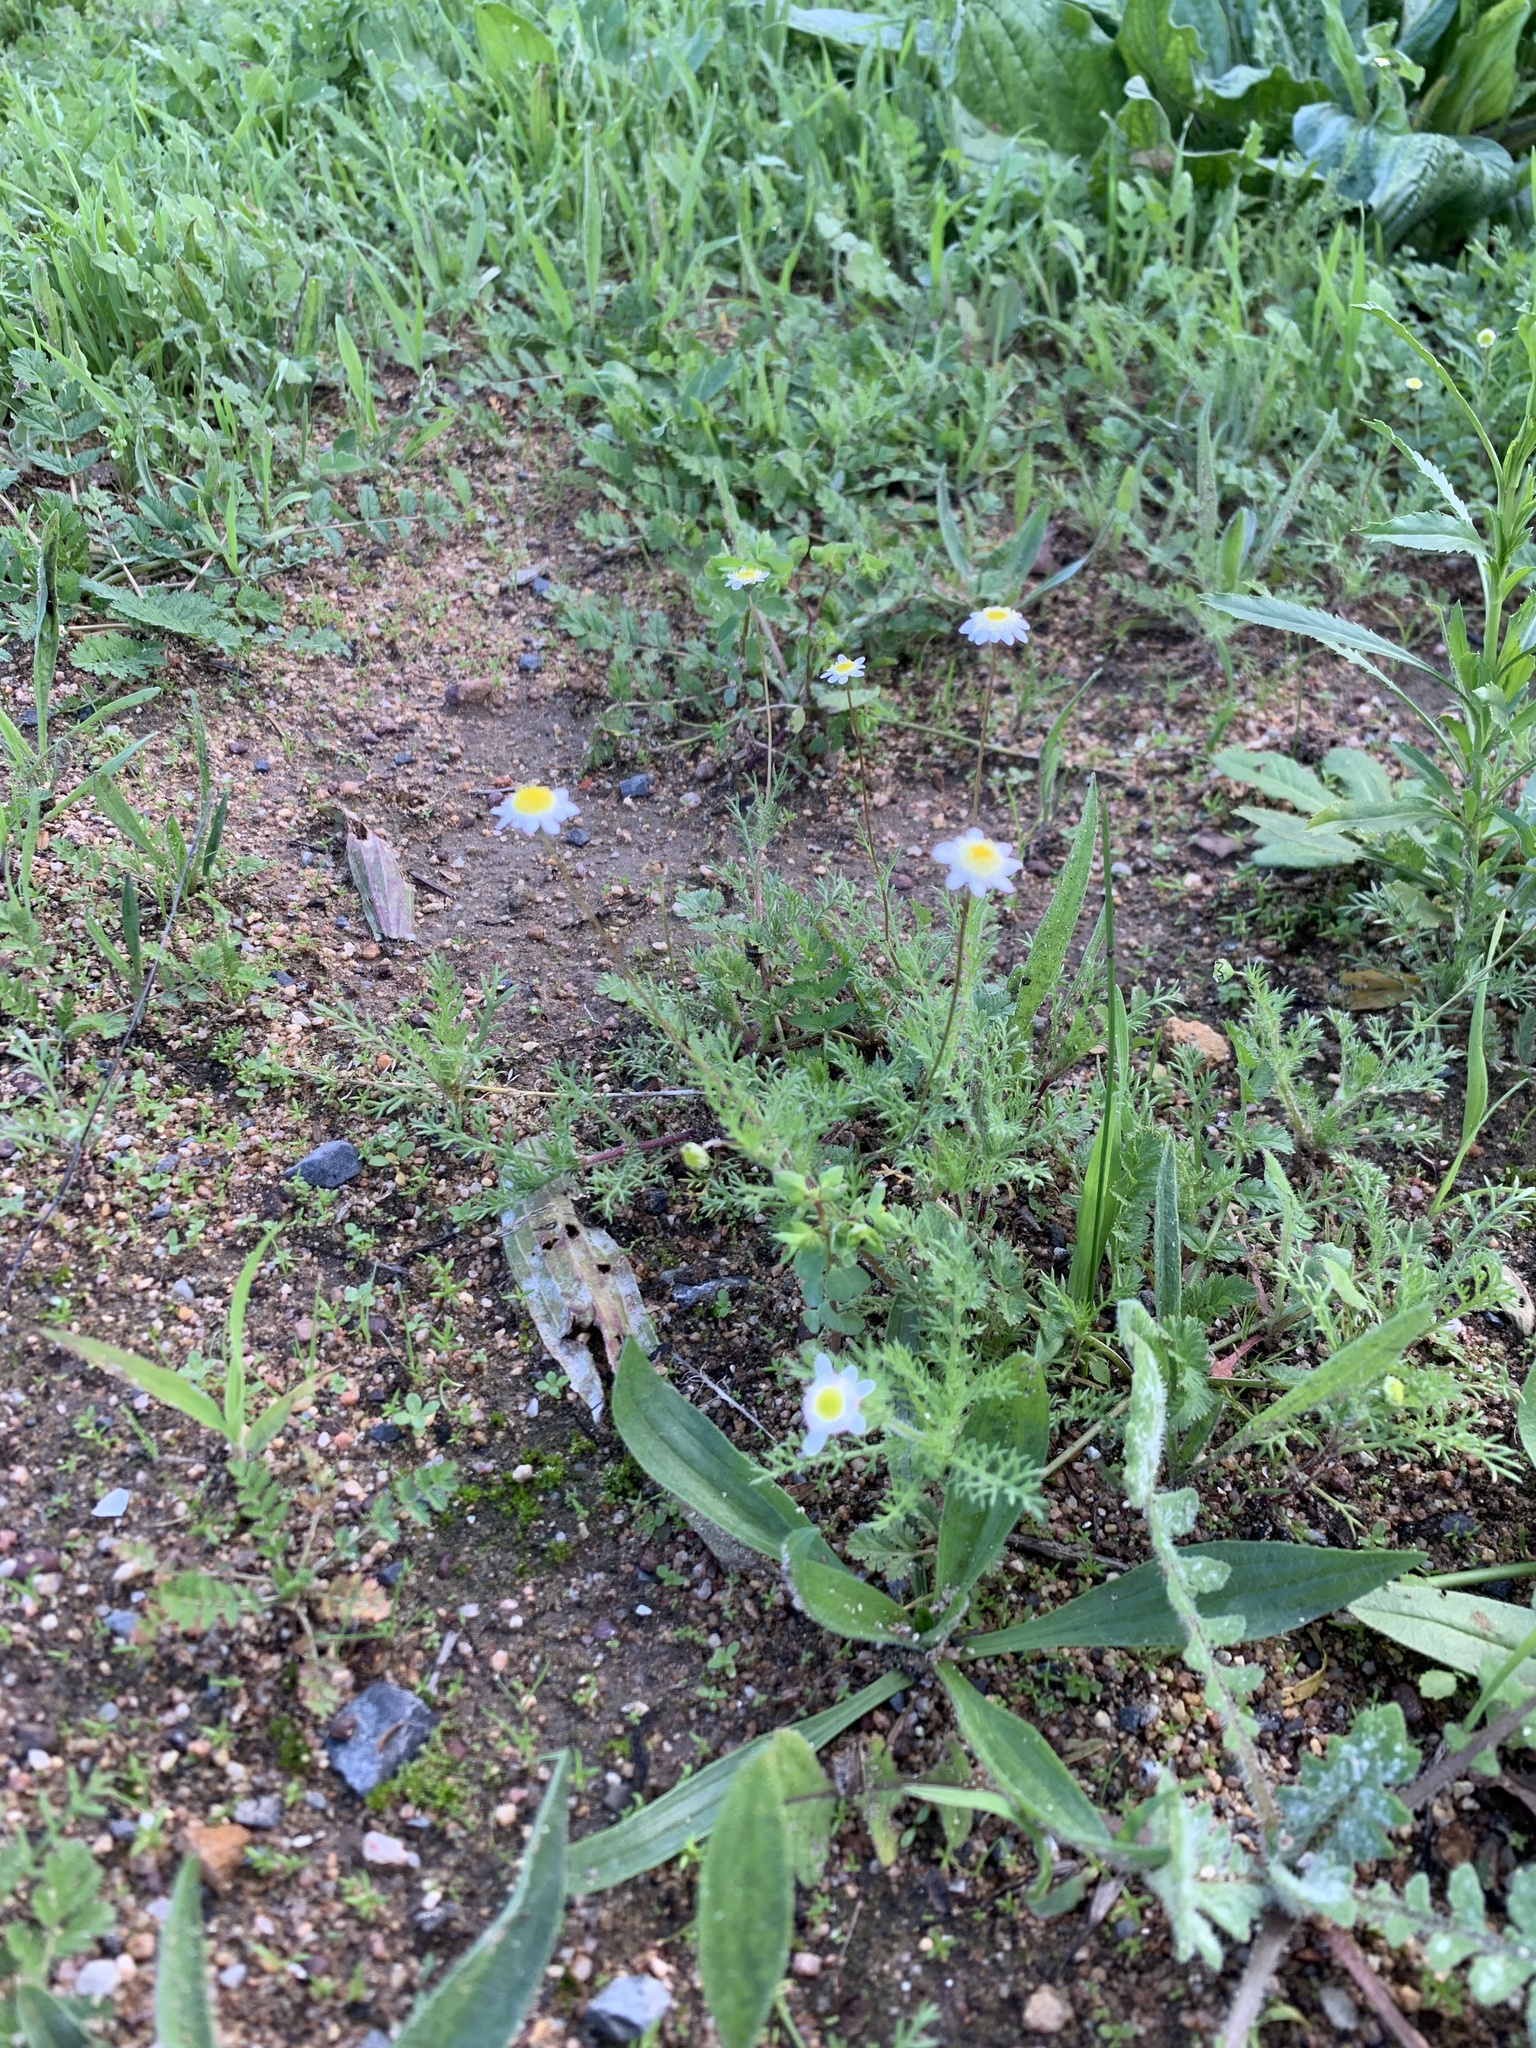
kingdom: Plantae
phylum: Tracheophyta
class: Magnoliopsida
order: Asterales
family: Asteraceae
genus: Cotula
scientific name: Cotula turbinata
